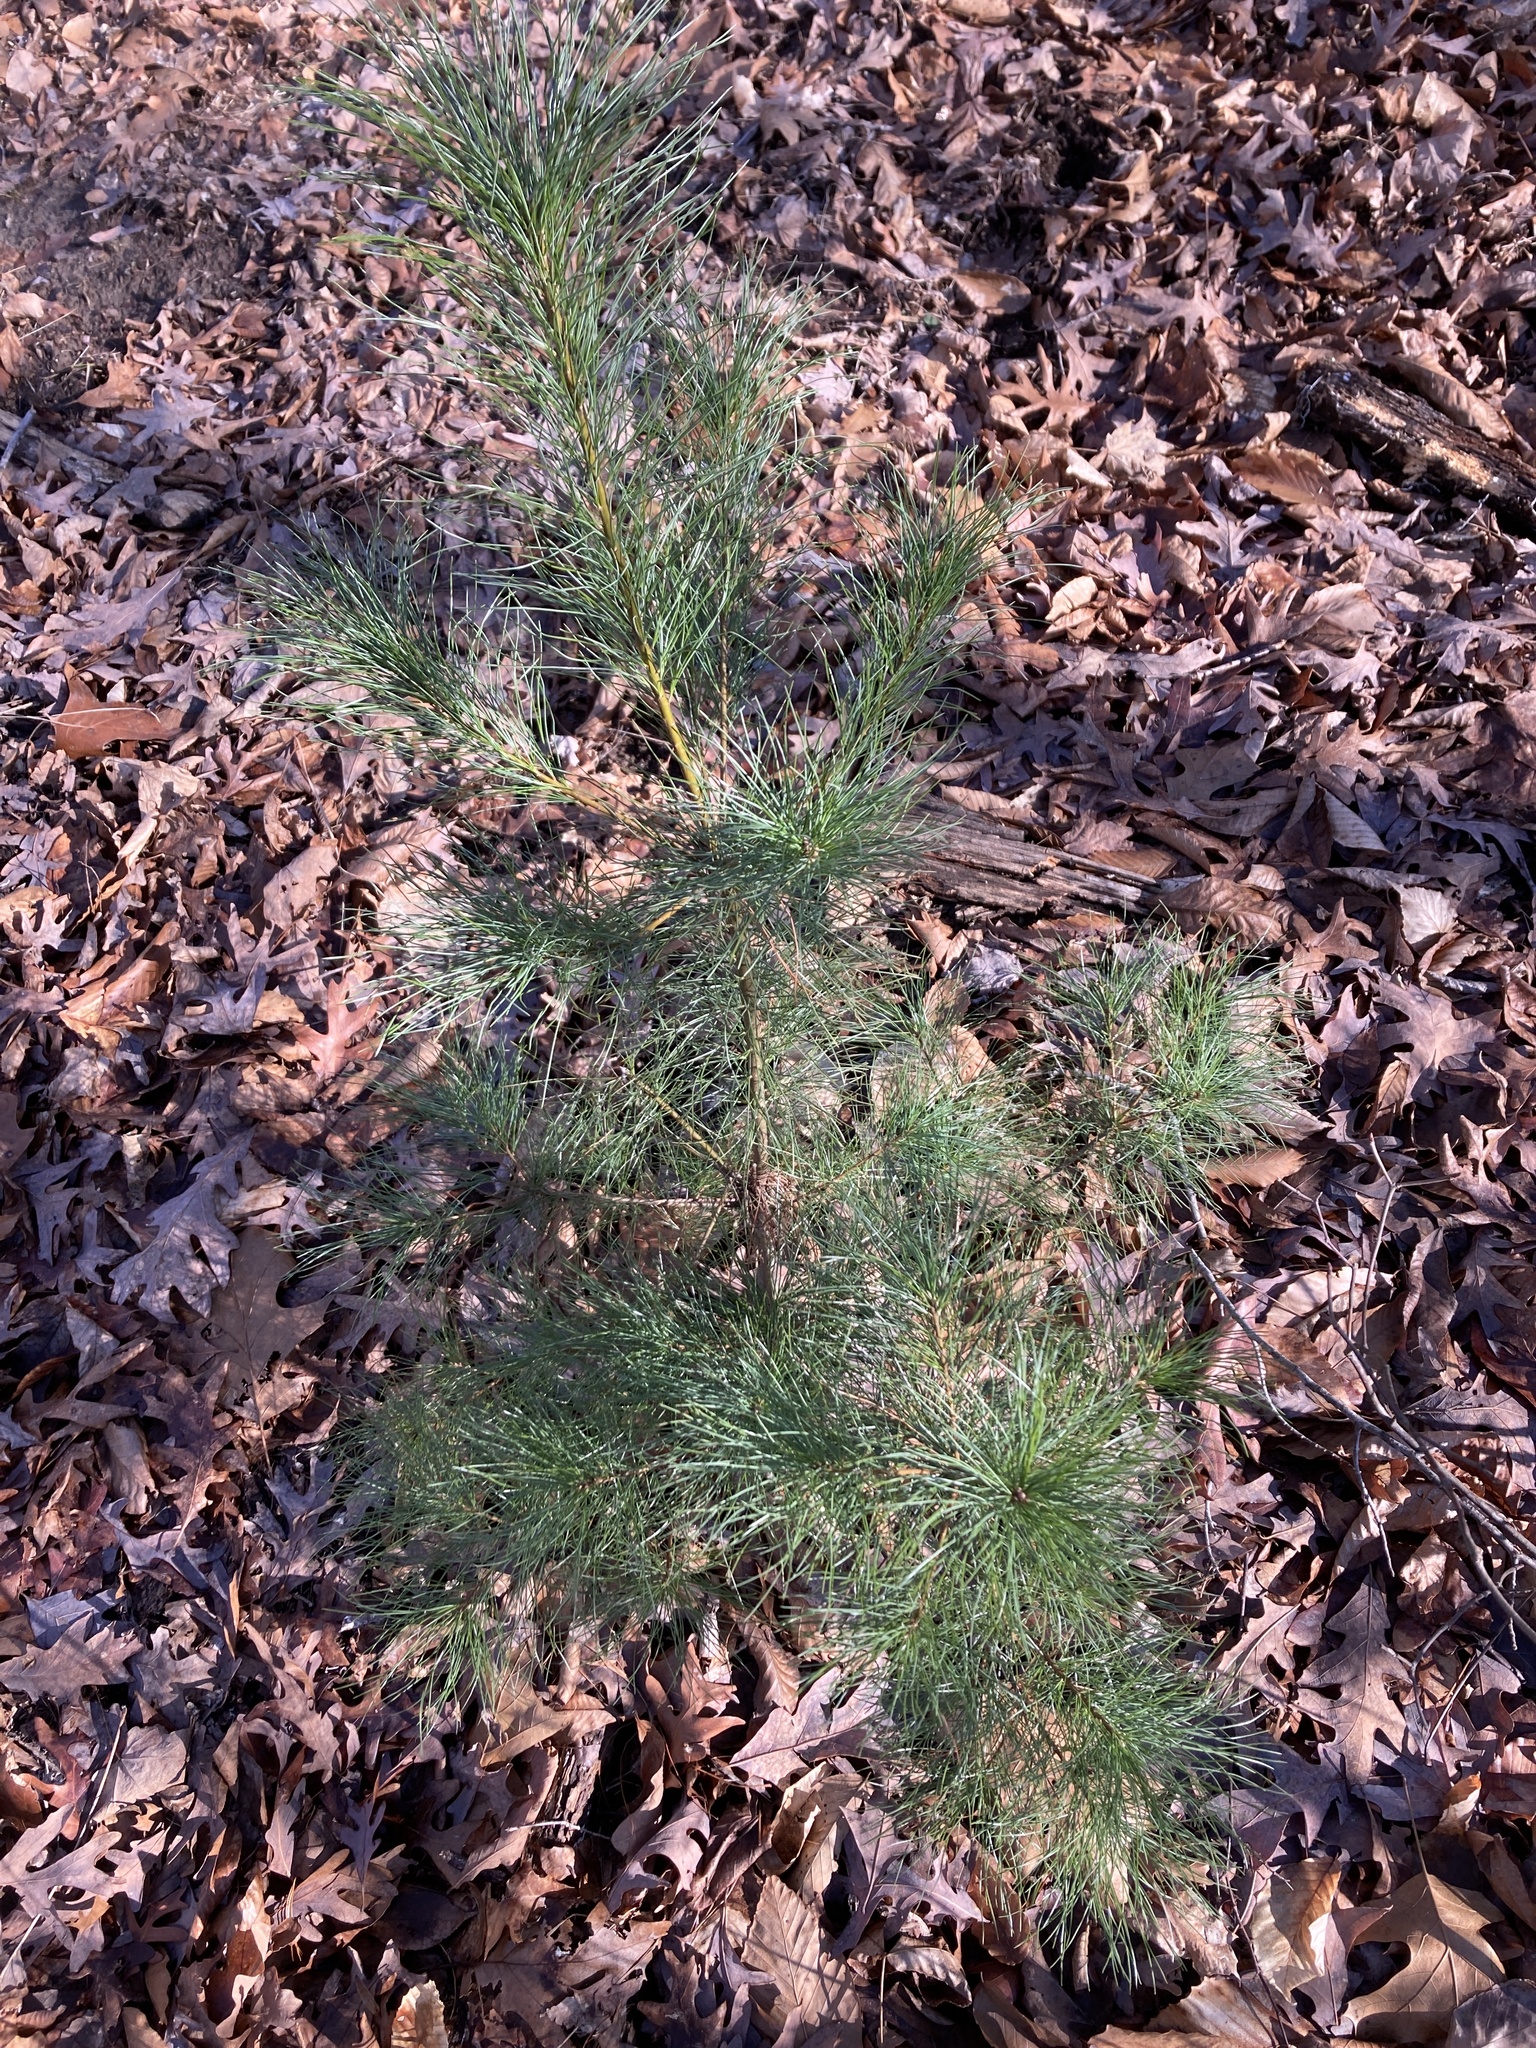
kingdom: Plantae
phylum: Tracheophyta
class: Pinopsida
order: Pinales
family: Pinaceae
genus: Pinus
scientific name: Pinus strobus
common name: Weymouth pine
